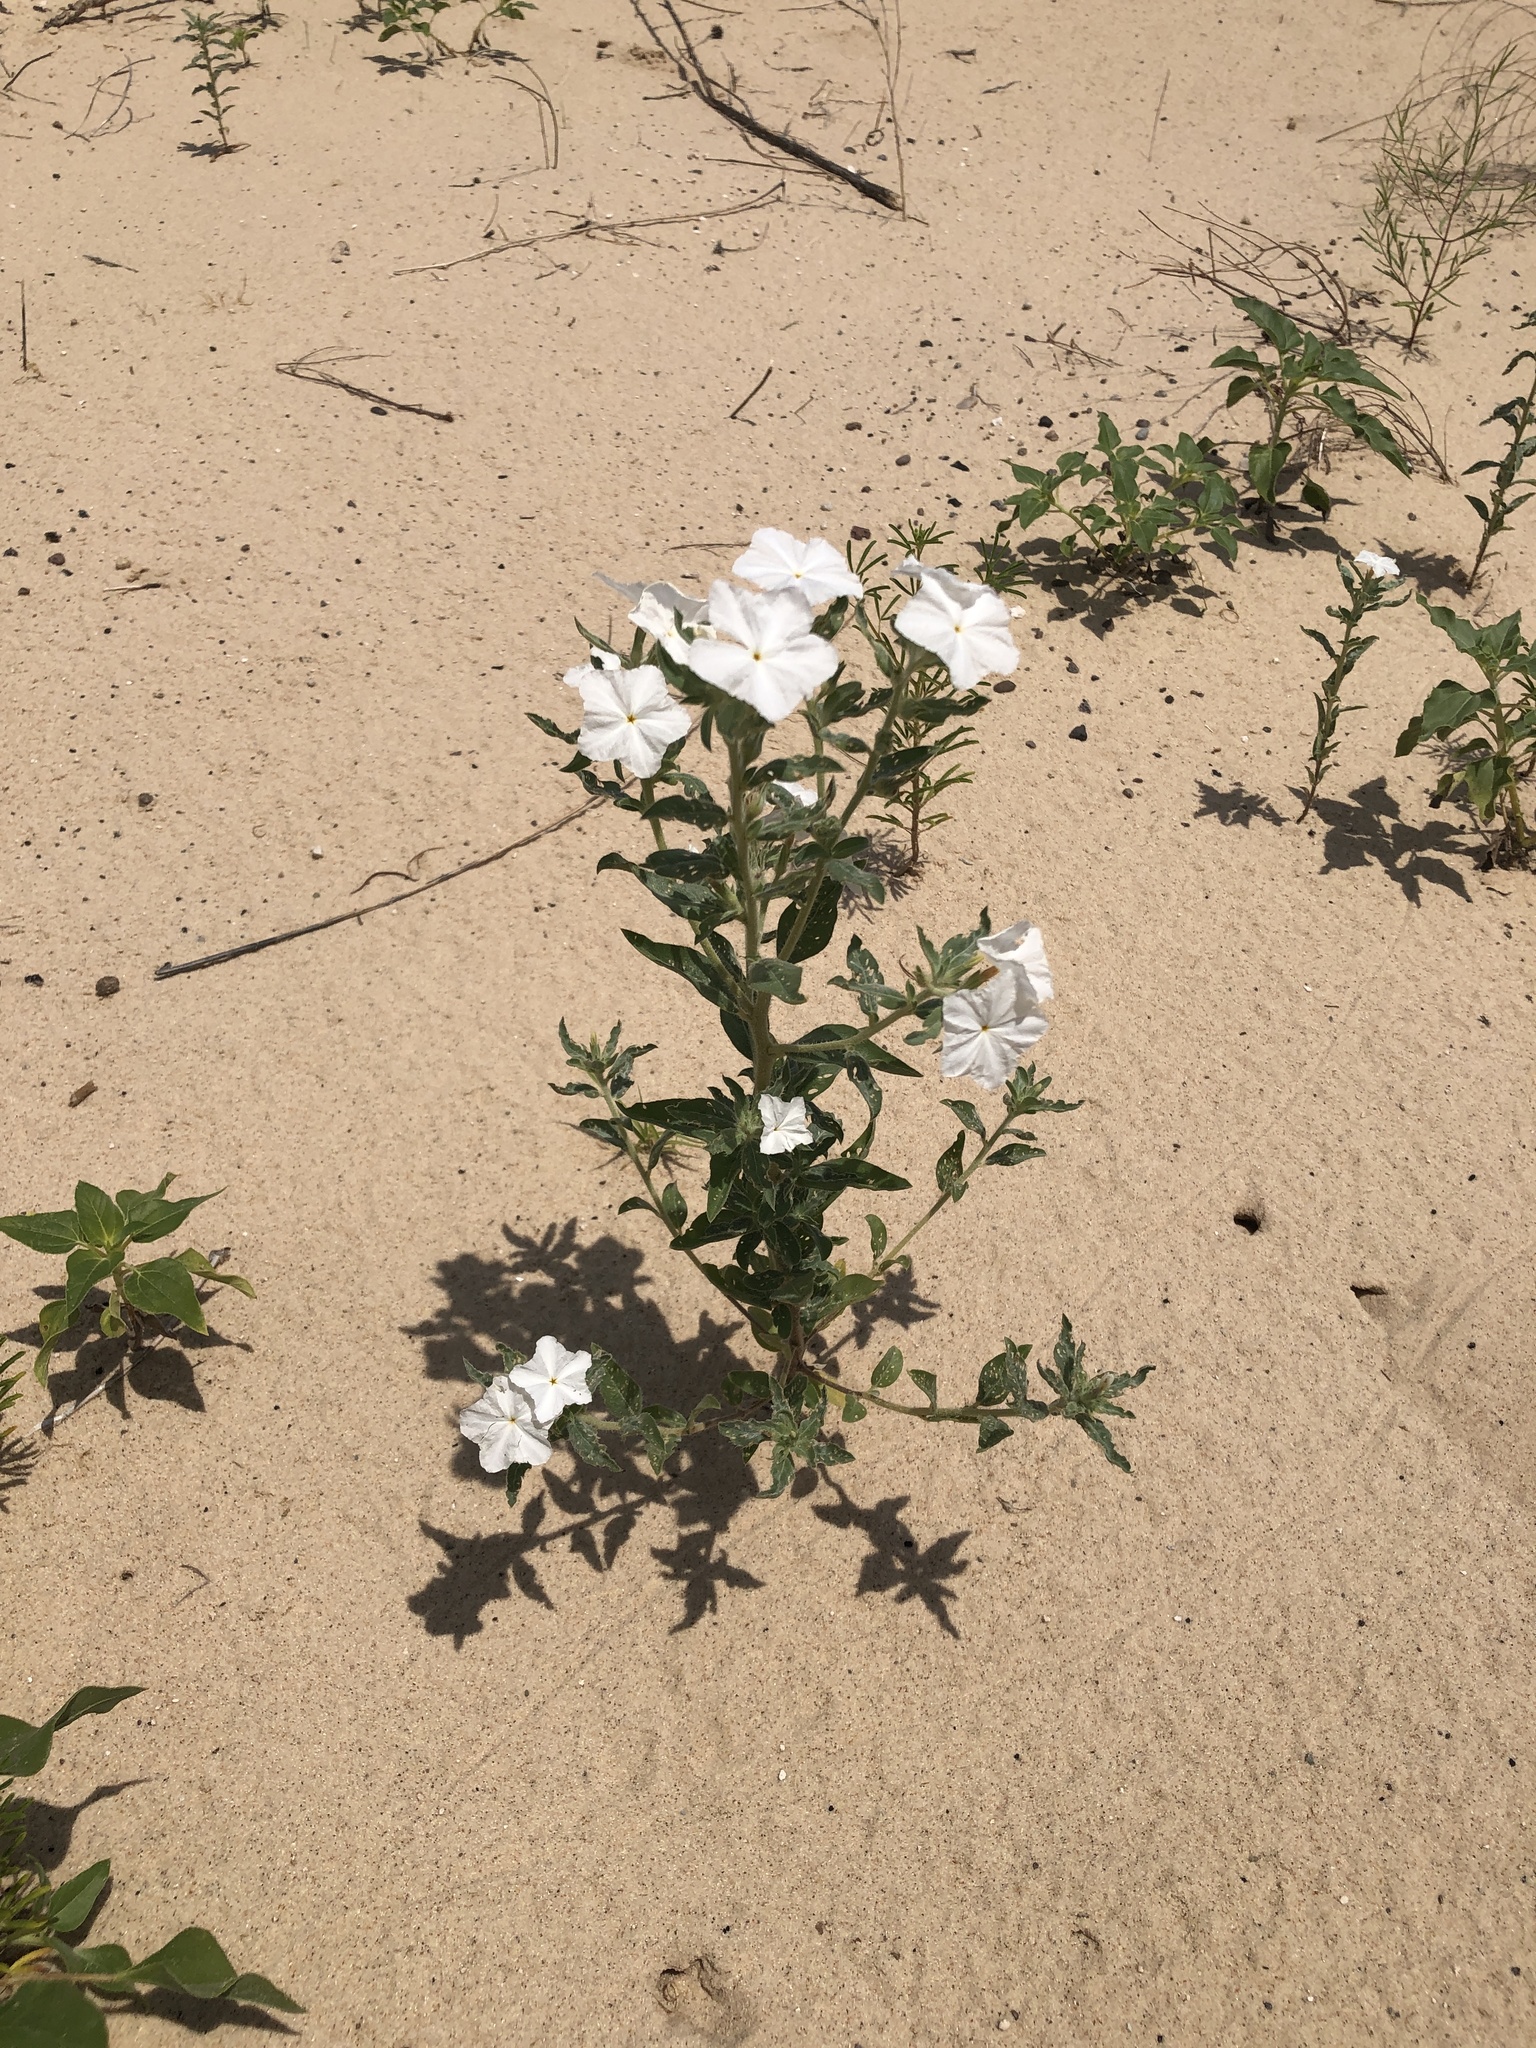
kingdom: Plantae
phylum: Tracheophyta
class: Magnoliopsida
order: Boraginales
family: Heliotropiaceae
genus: Euploca
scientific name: Euploca convolvulacea
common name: Bindweed heliotrope
